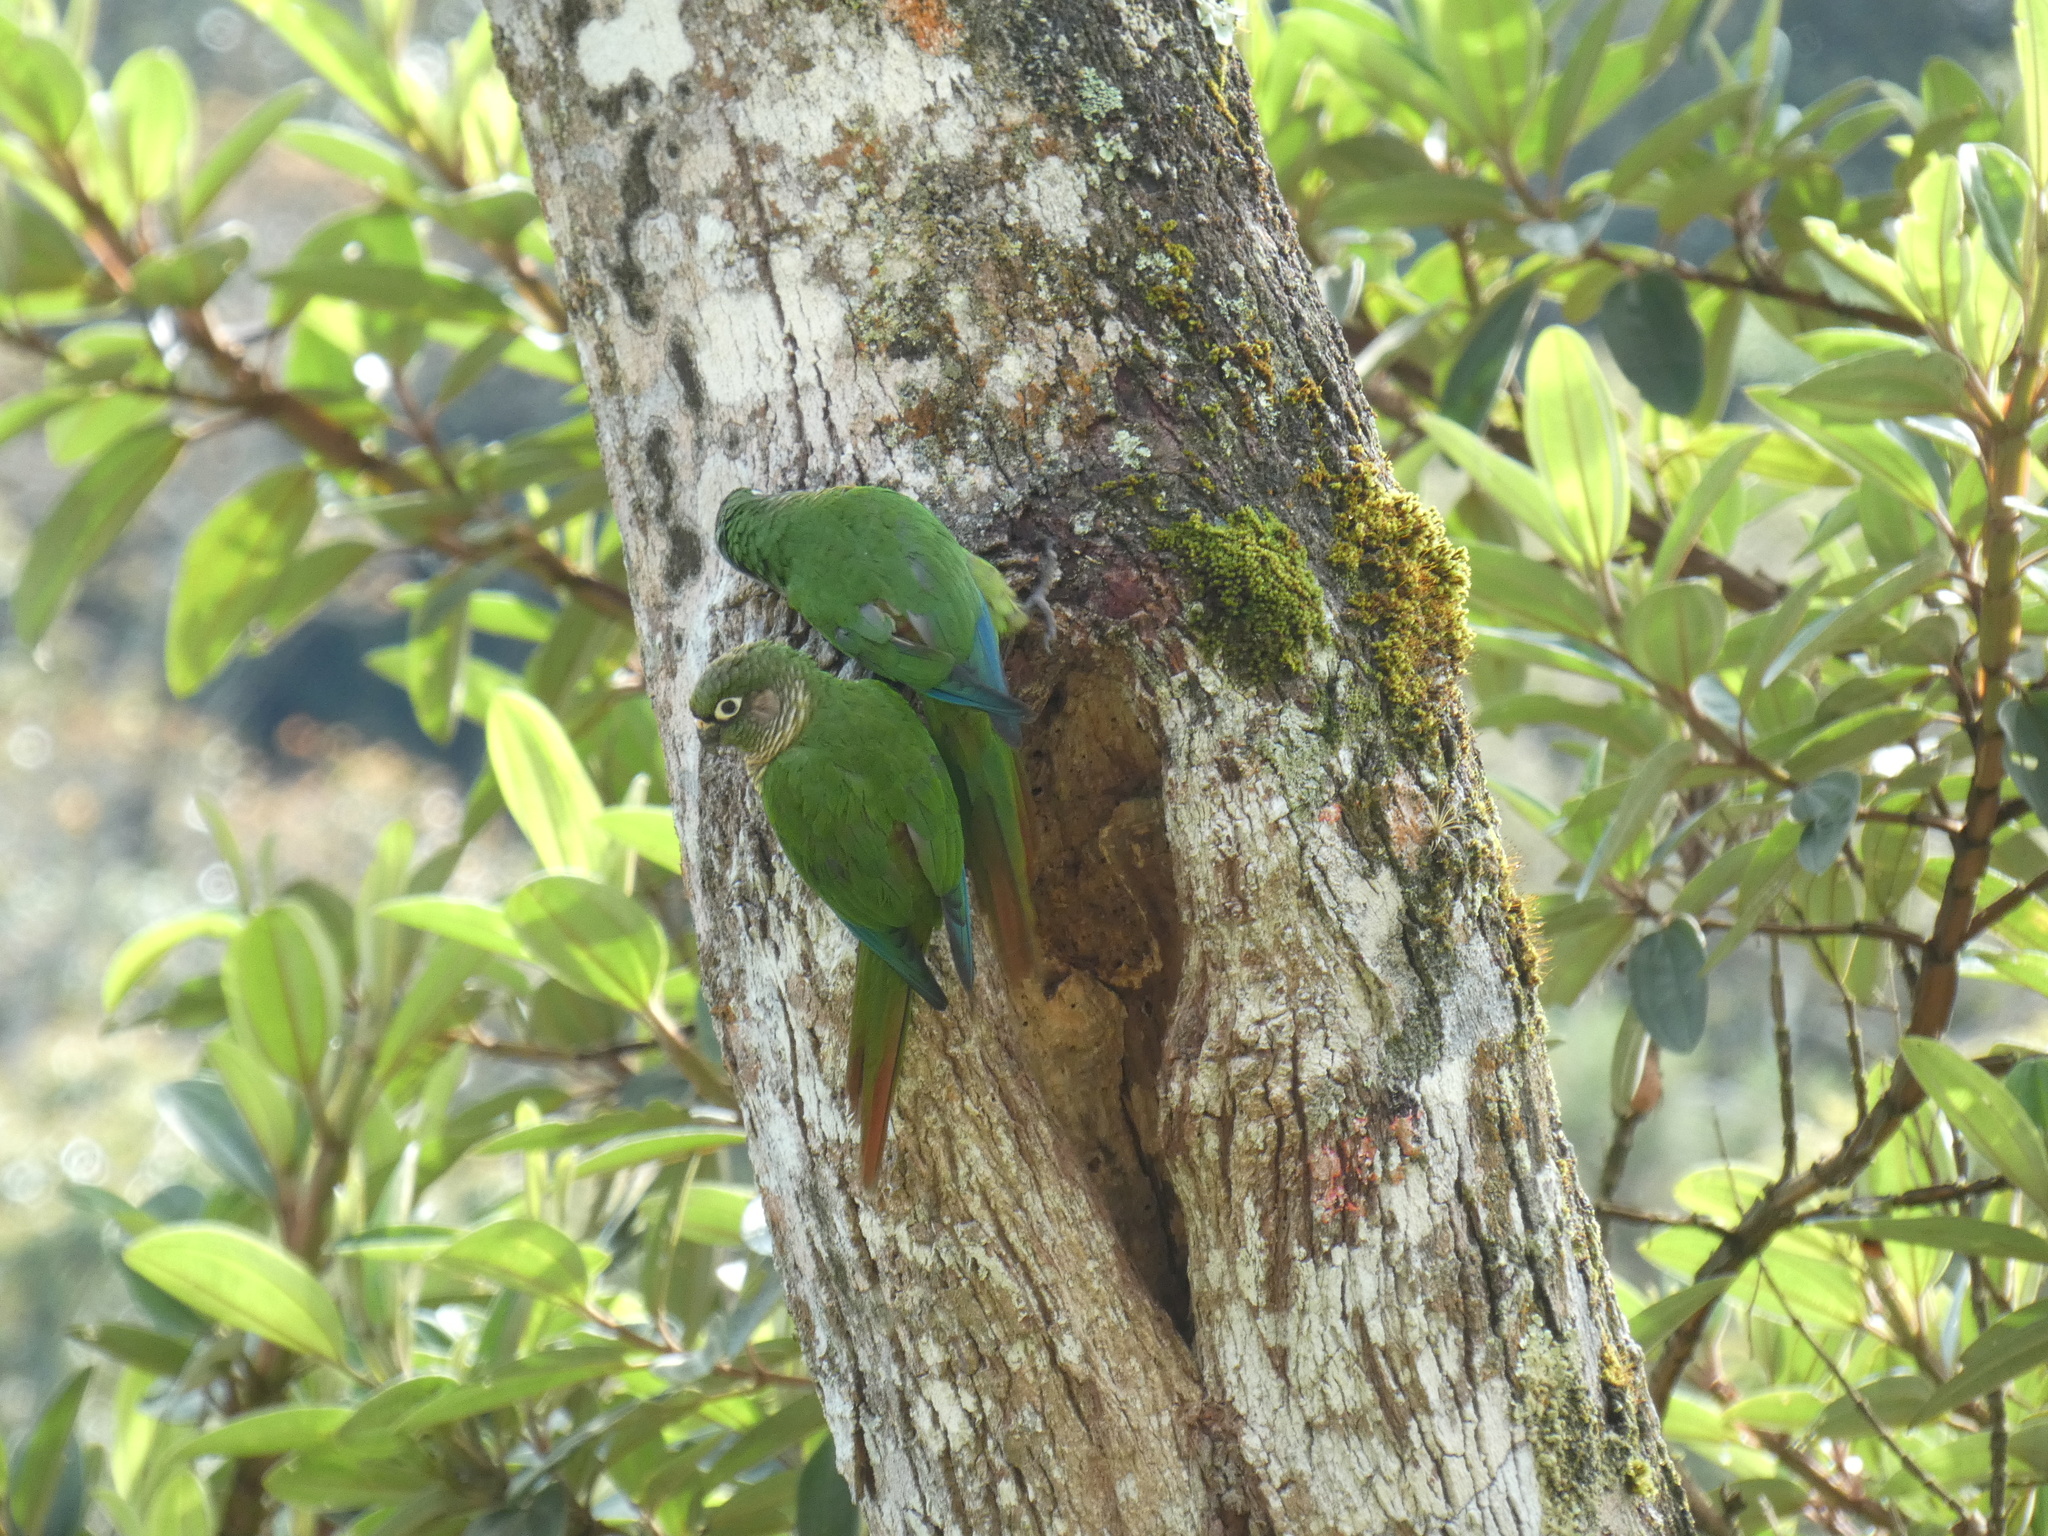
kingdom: Animalia
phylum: Chordata
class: Aves
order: Psittaciformes
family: Psittacidae
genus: Pyrrhura
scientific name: Pyrrhura frontalis
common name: Maroon-bellied parakeet
